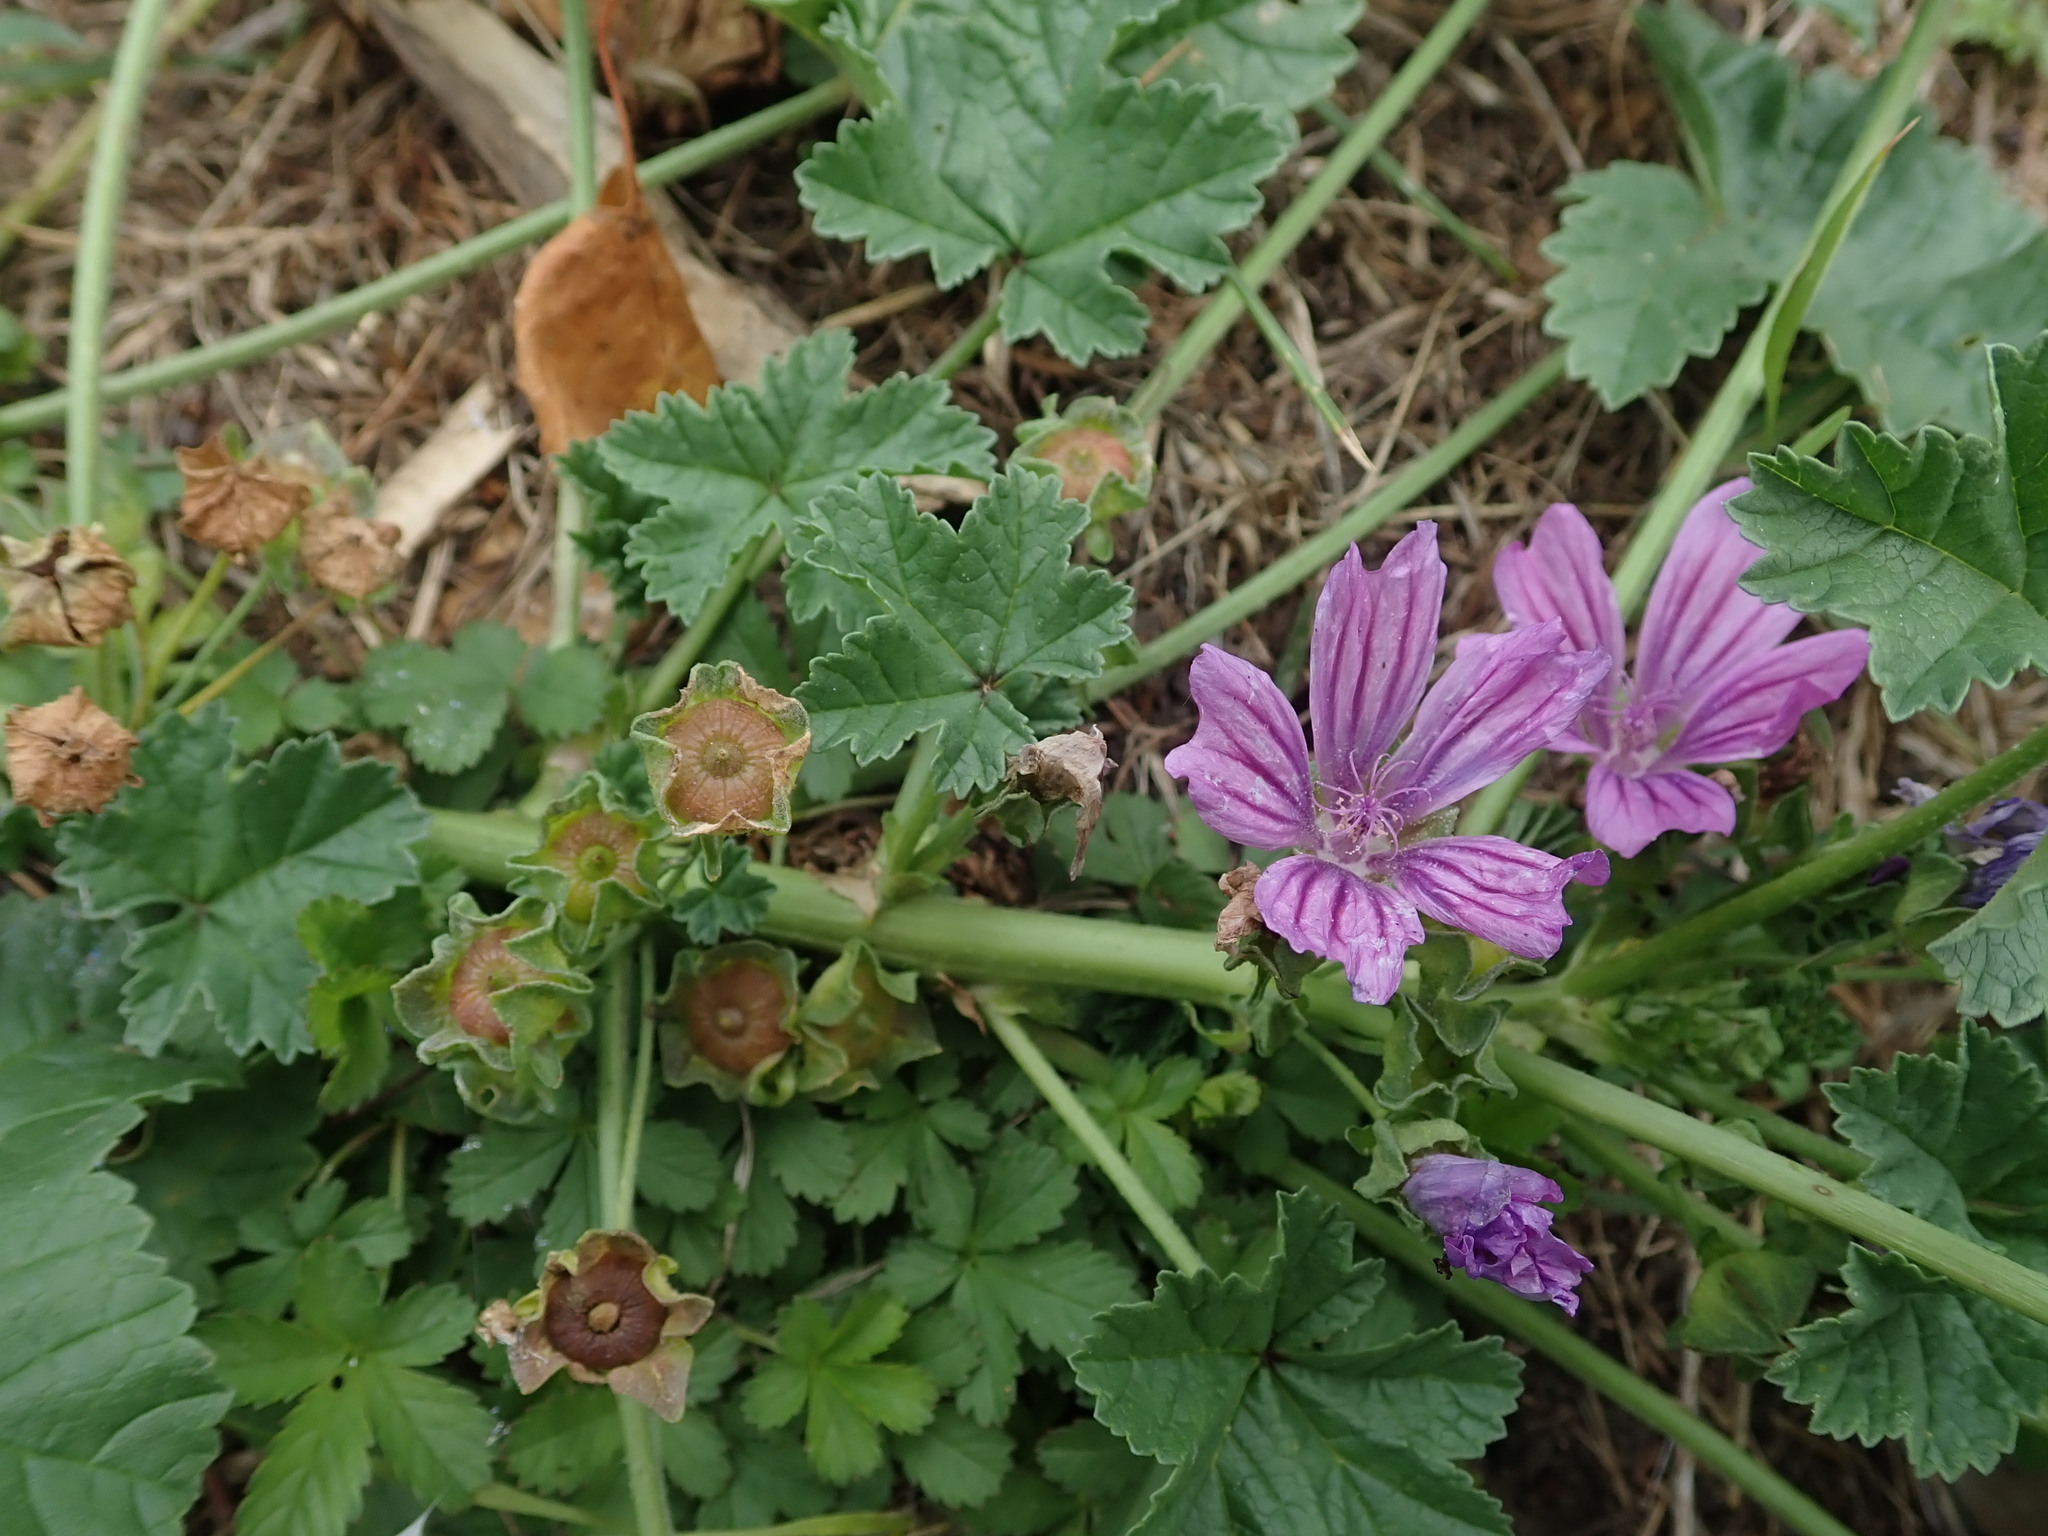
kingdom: Plantae
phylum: Tracheophyta
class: Magnoliopsida
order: Malvales
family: Malvaceae
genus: Malva
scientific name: Malva sylvestris
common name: Common mallow
